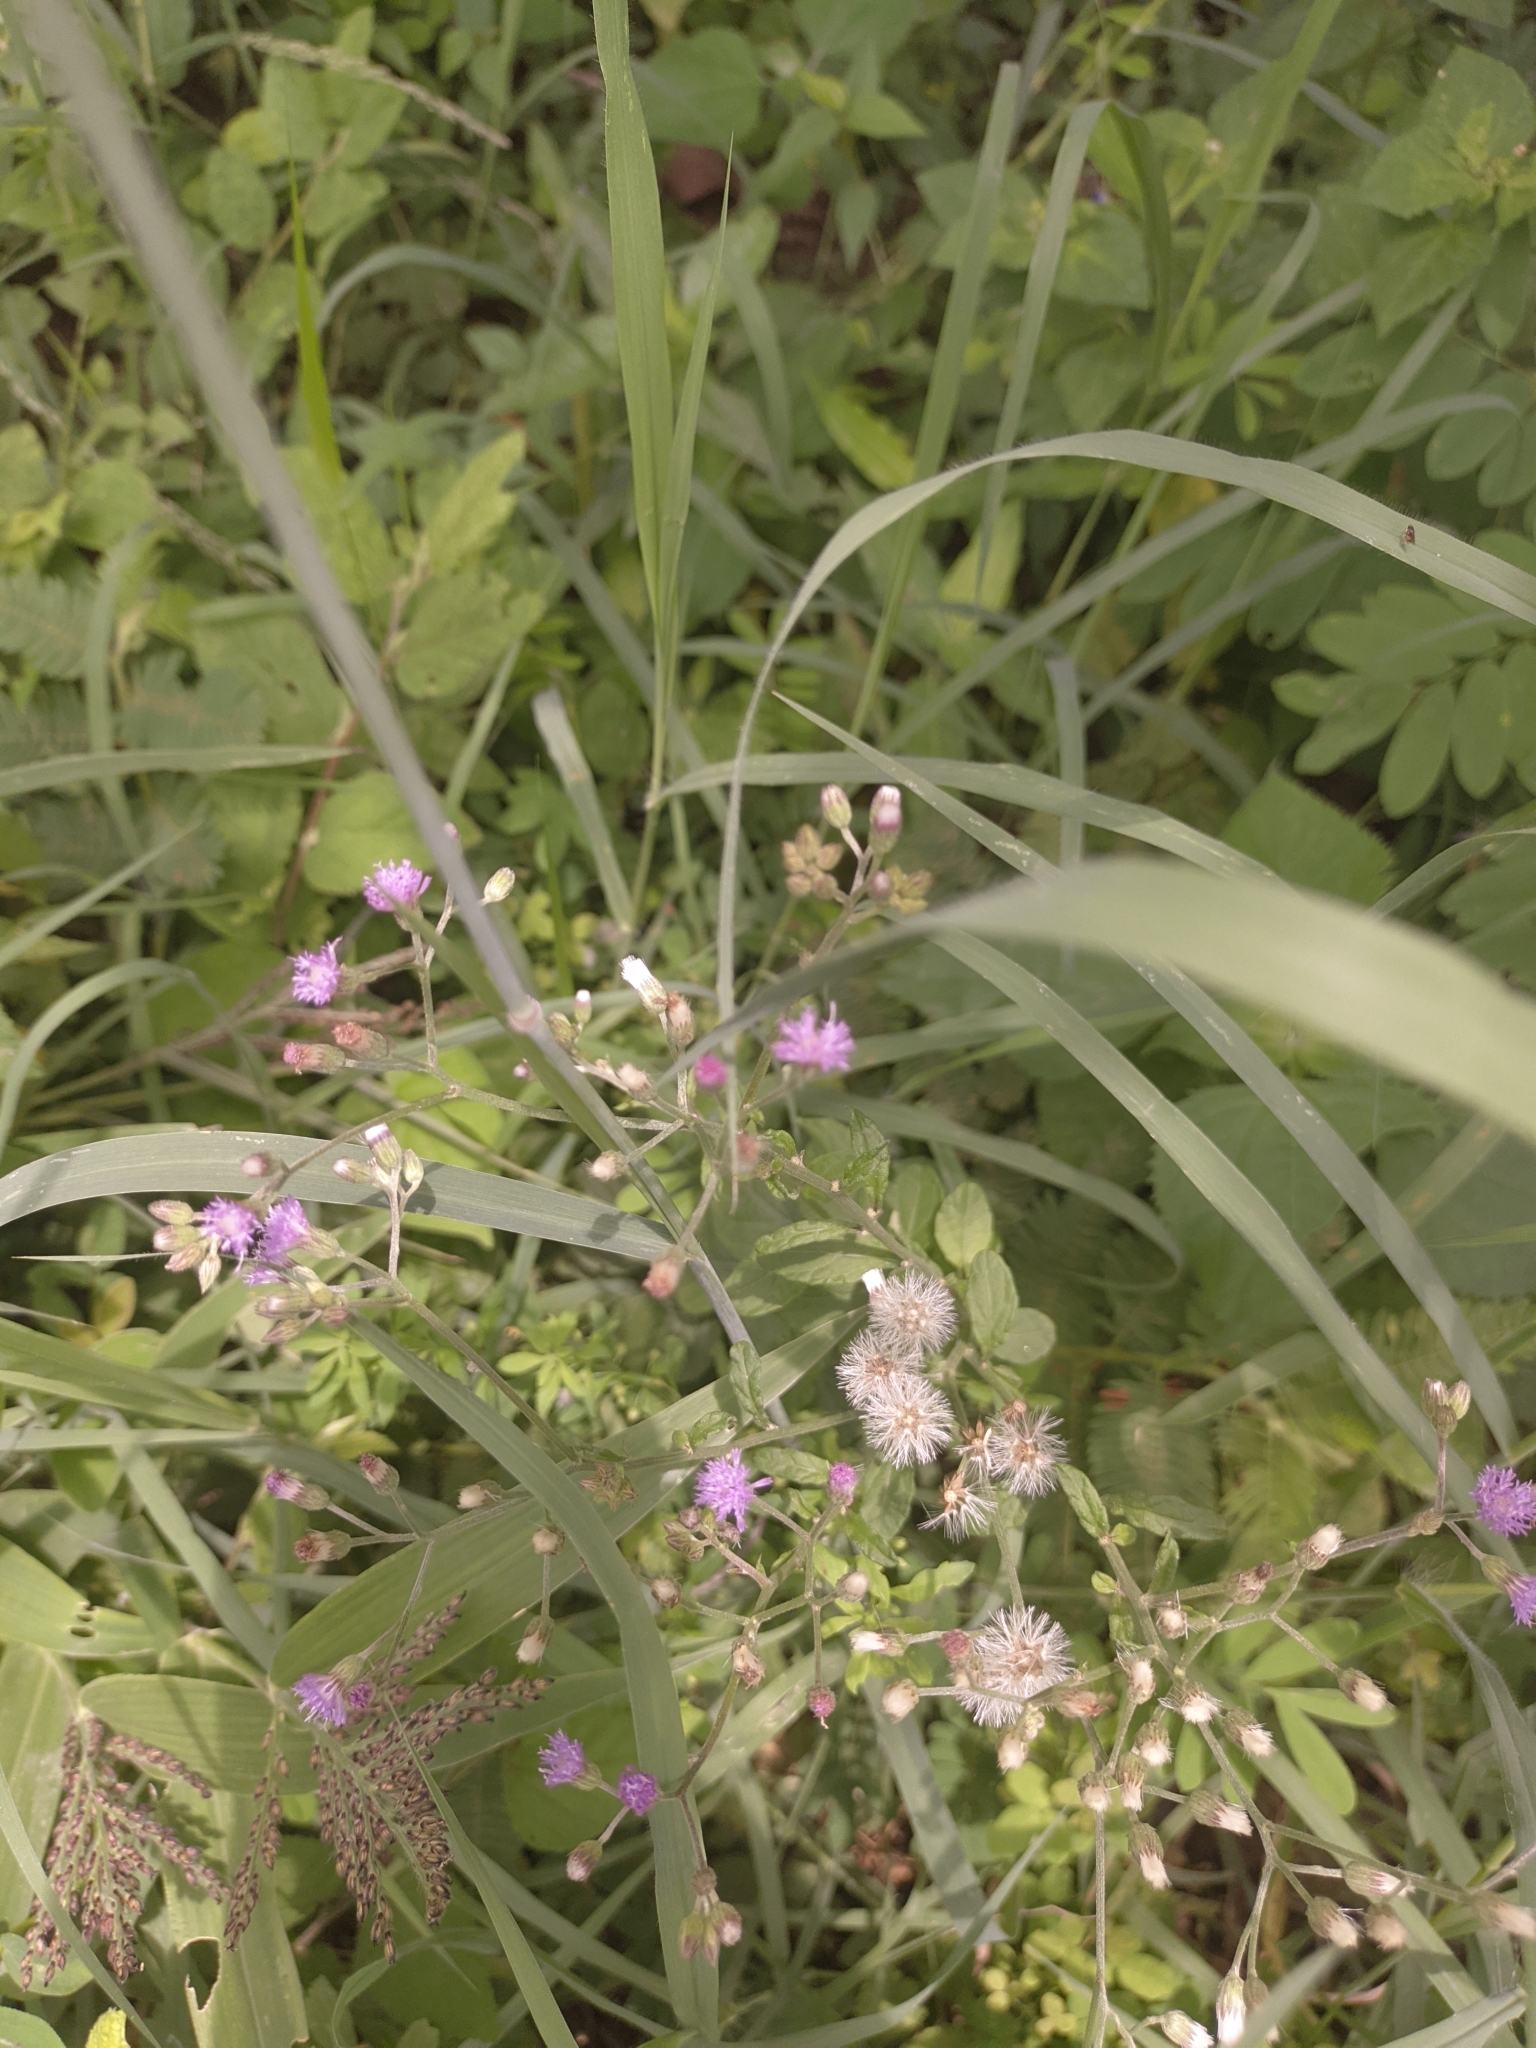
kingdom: Plantae
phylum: Tracheophyta
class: Magnoliopsida
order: Asterales
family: Asteraceae
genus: Cyanthillium
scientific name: Cyanthillium cinereum
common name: Little ironweed
